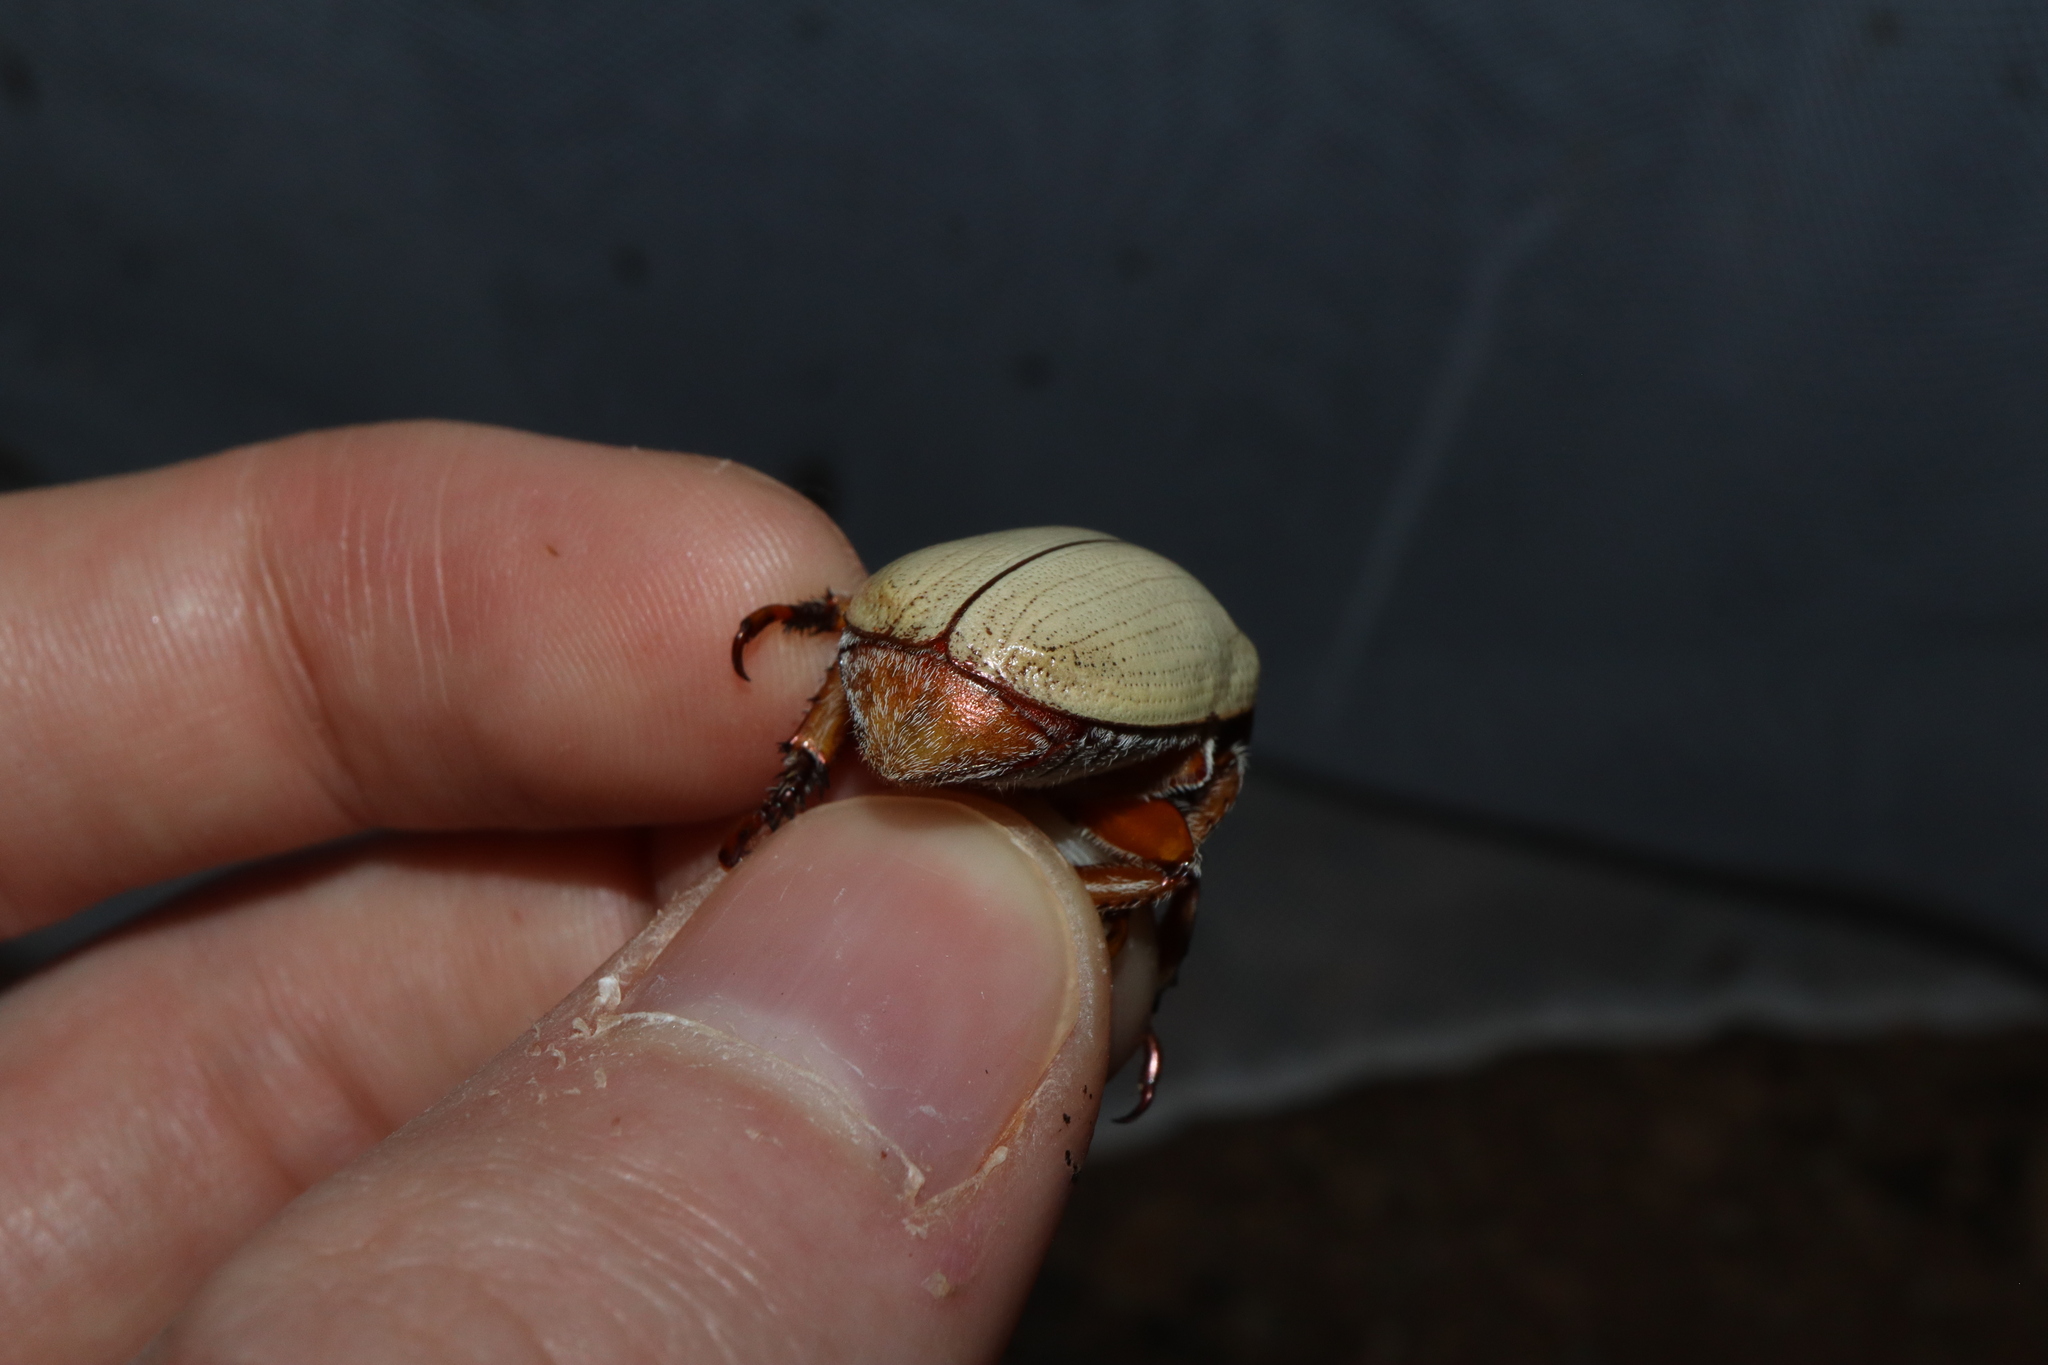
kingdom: Animalia
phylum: Arthropoda
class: Insecta
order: Coleoptera
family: Scarabaeidae
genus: Anoplognathus
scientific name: Anoplognathus macleayi
